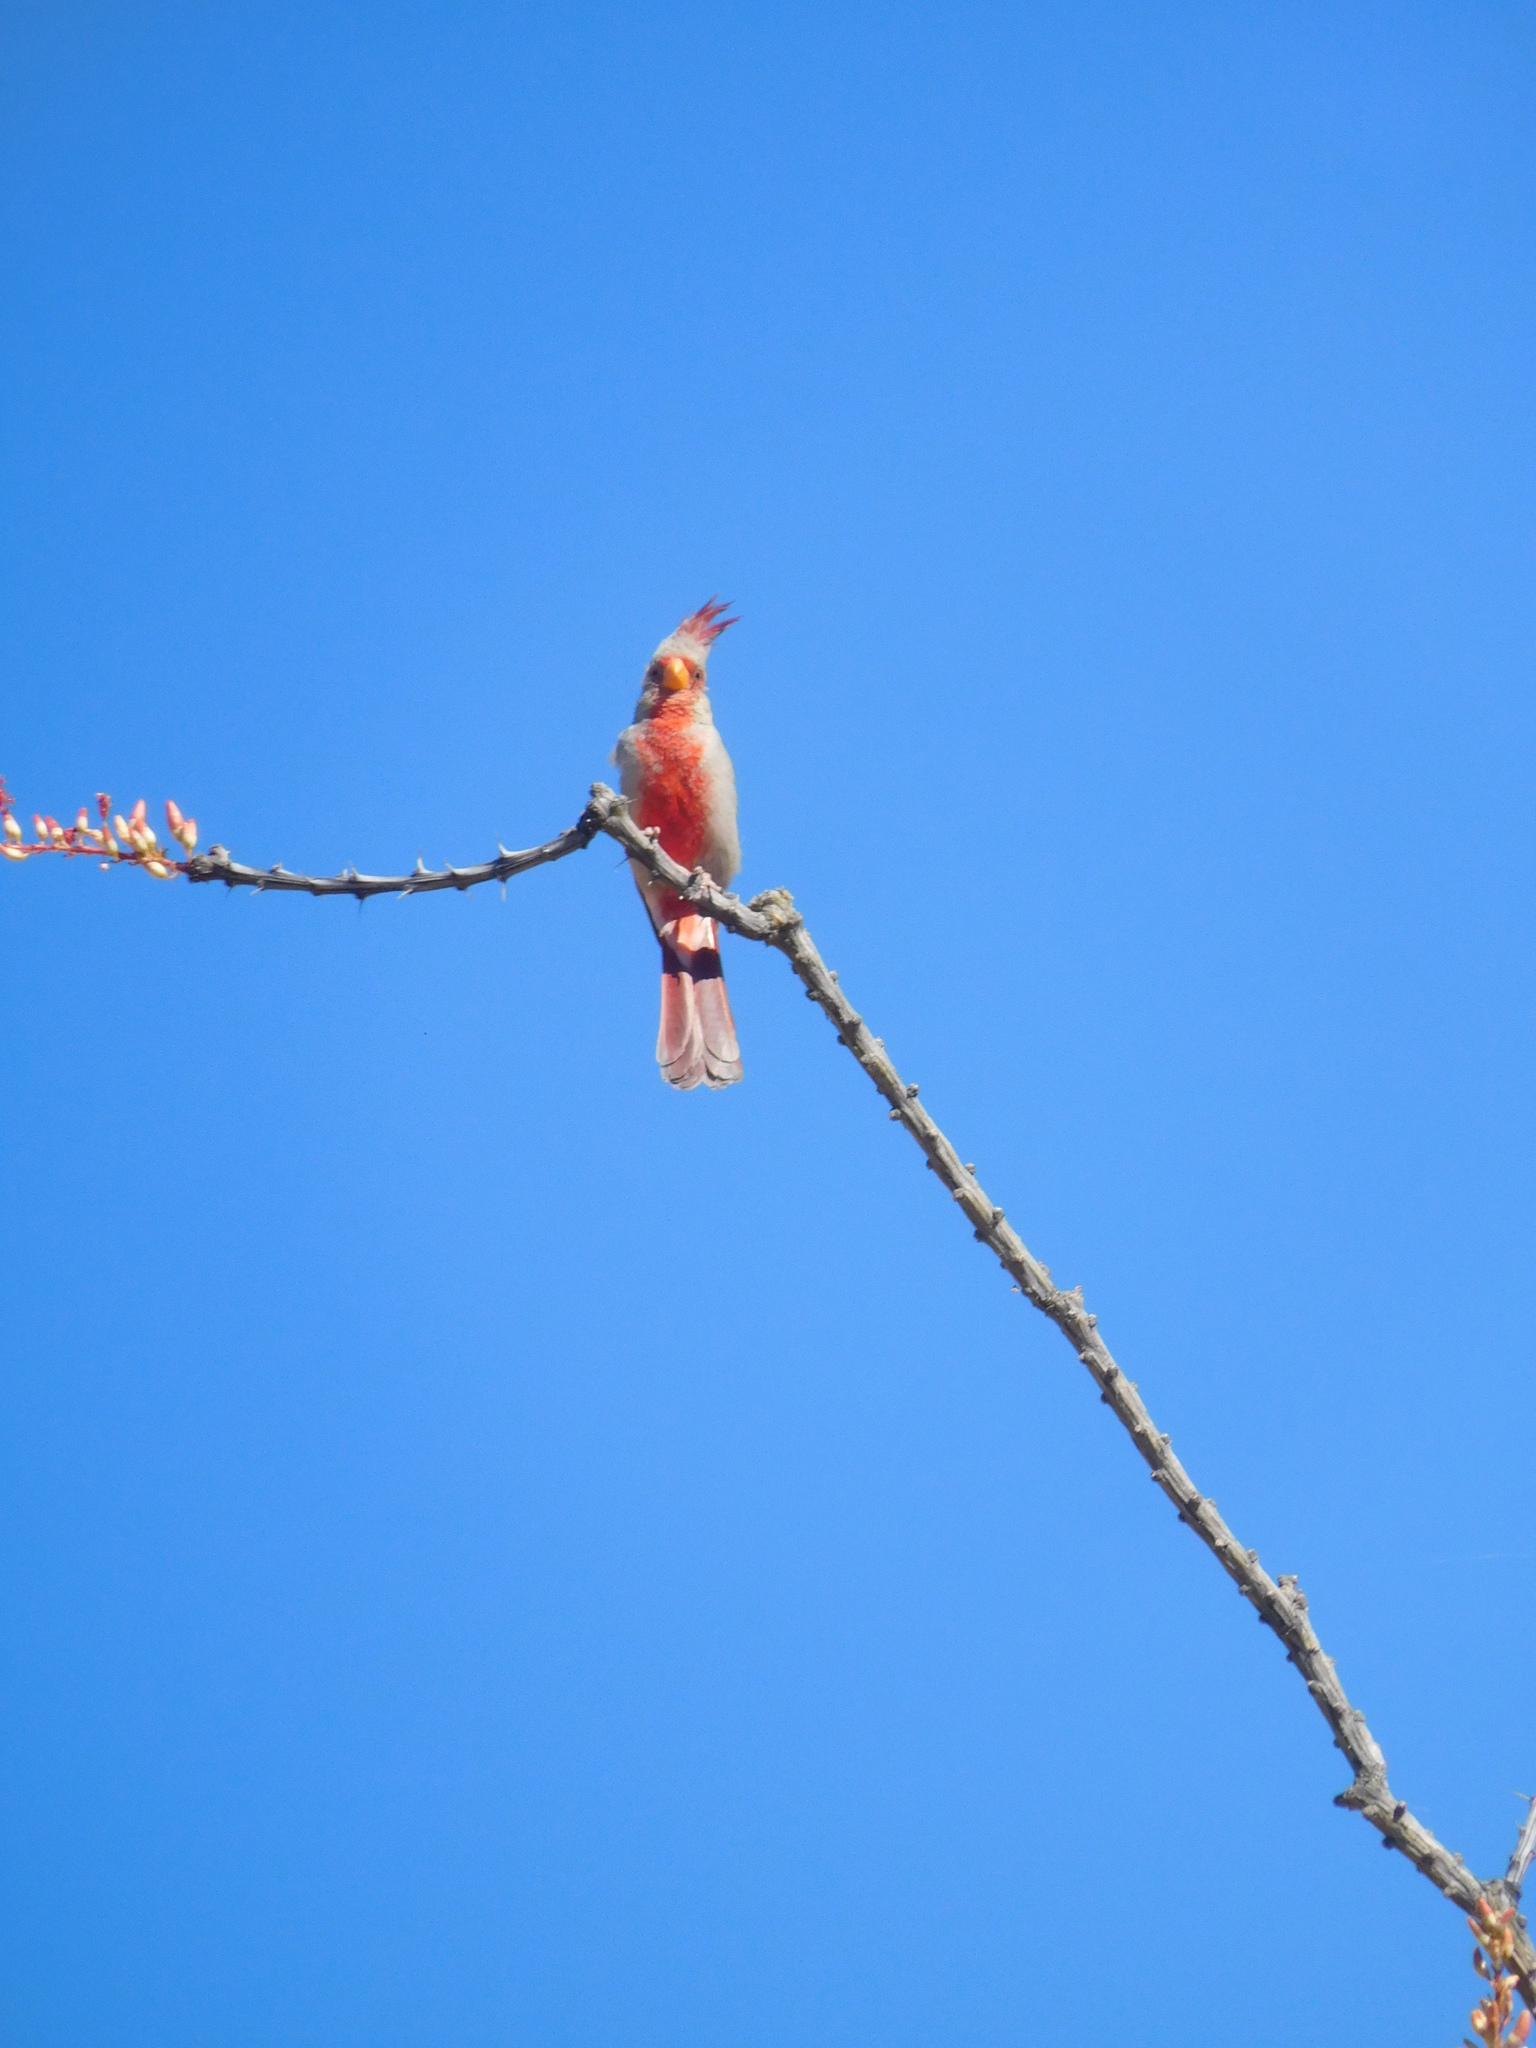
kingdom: Animalia
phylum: Chordata
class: Aves
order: Passeriformes
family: Cardinalidae
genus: Cardinalis
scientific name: Cardinalis sinuatus
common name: Pyrrhuloxia
